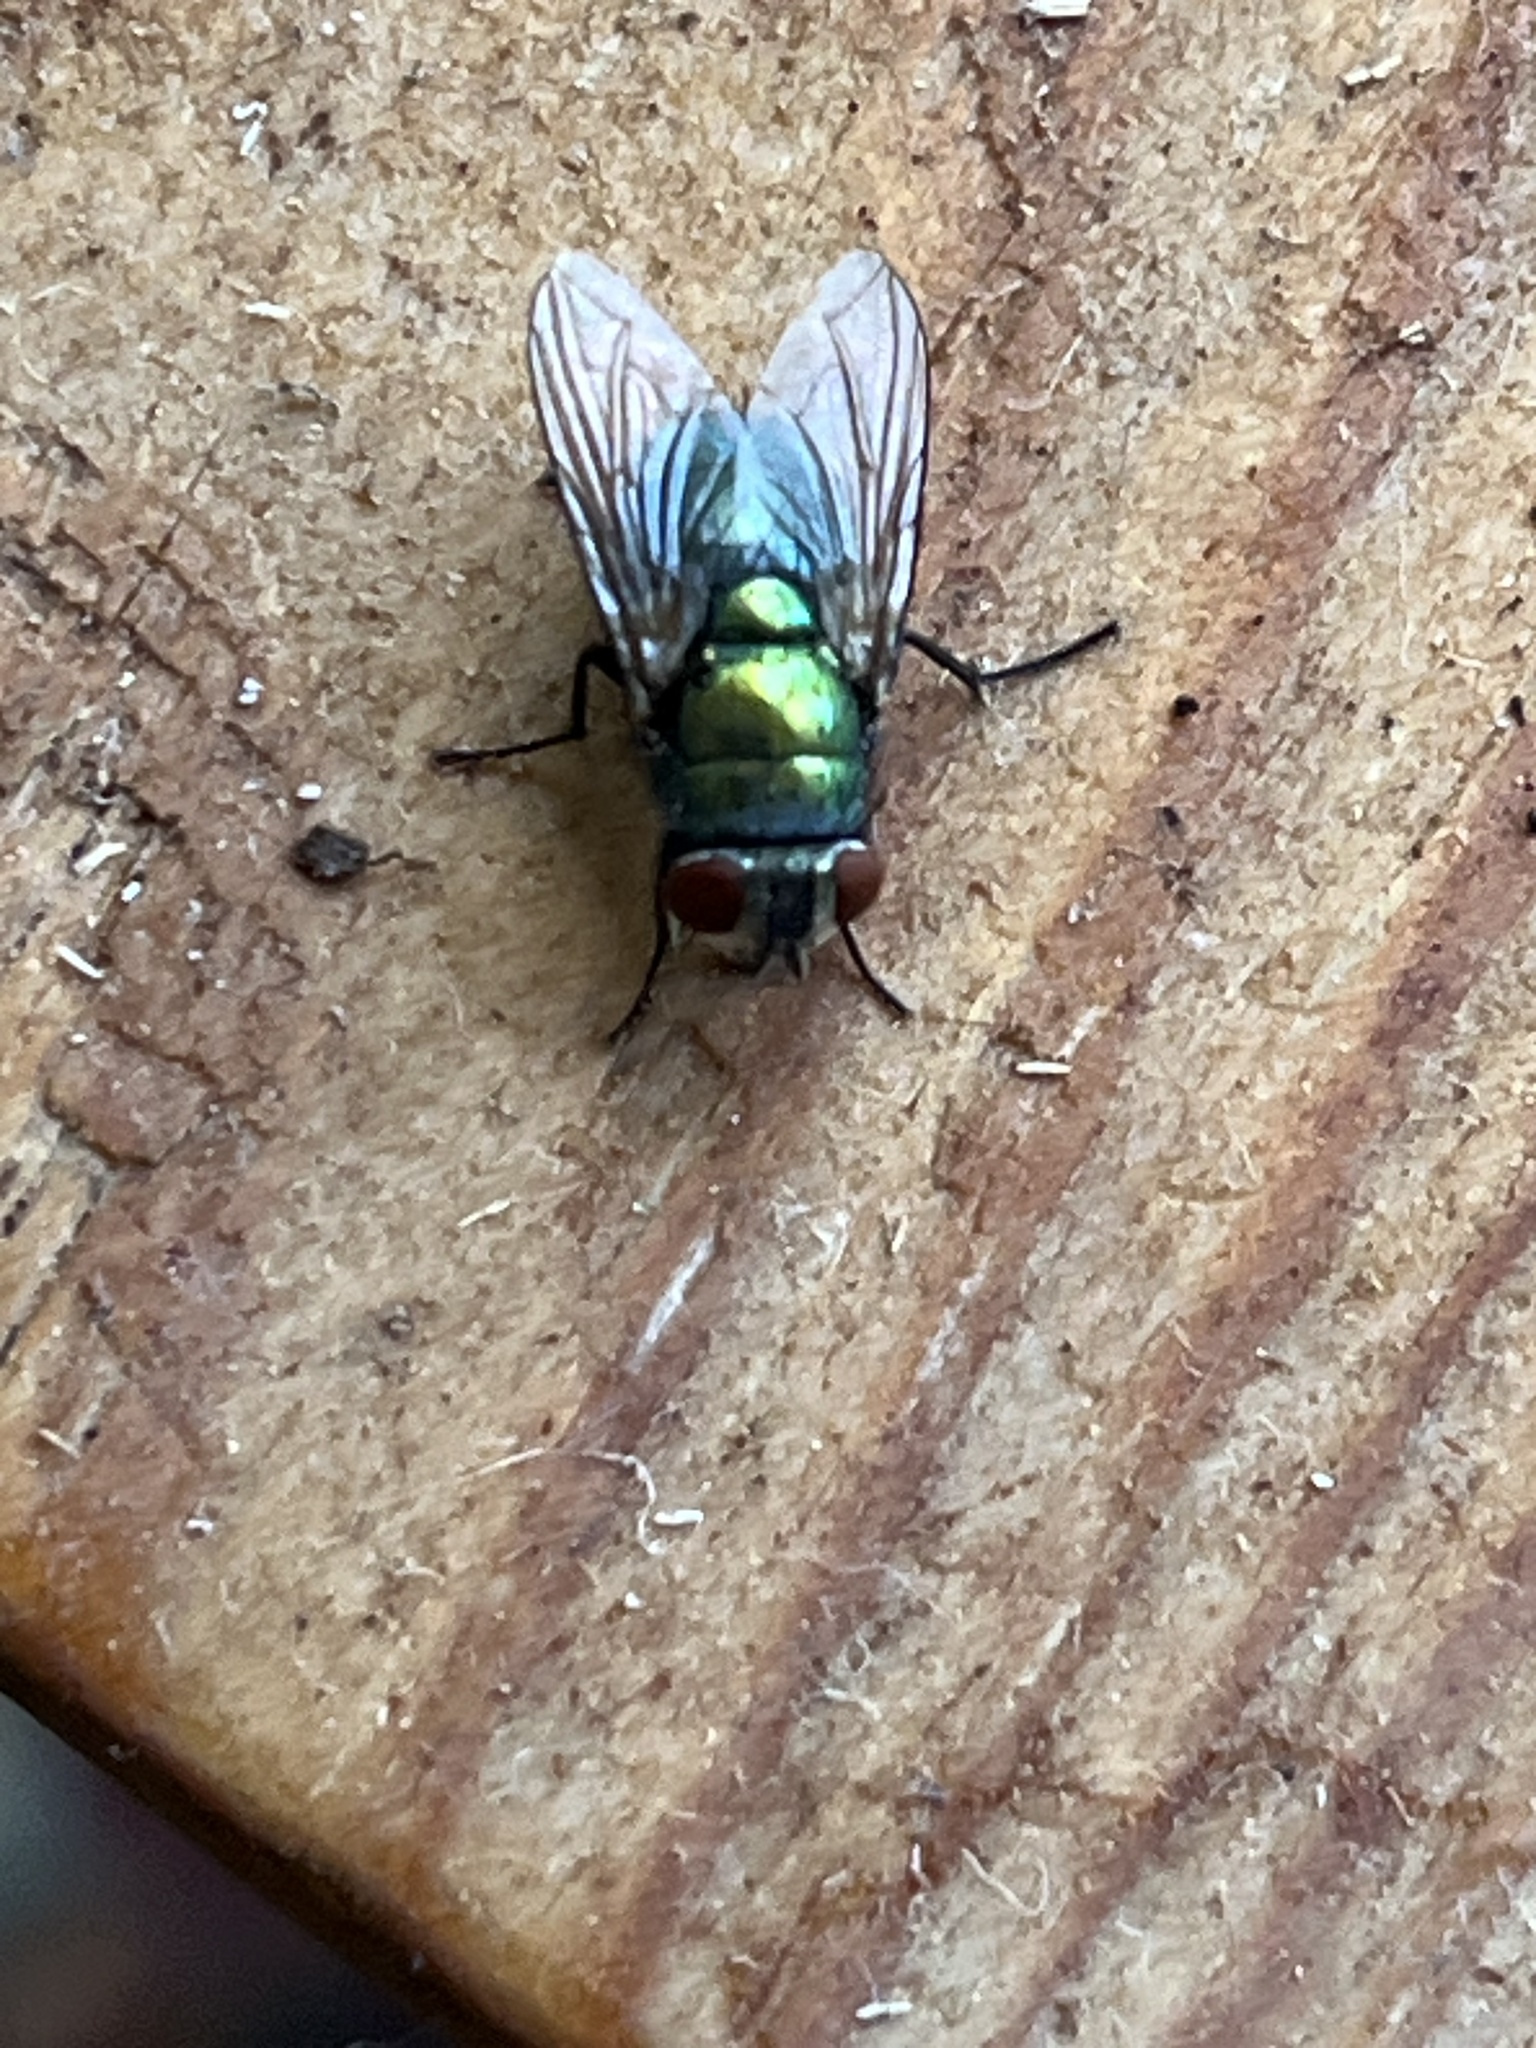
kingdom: Animalia
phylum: Arthropoda
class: Insecta
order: Diptera
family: Calliphoridae
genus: Lucilia
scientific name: Lucilia
